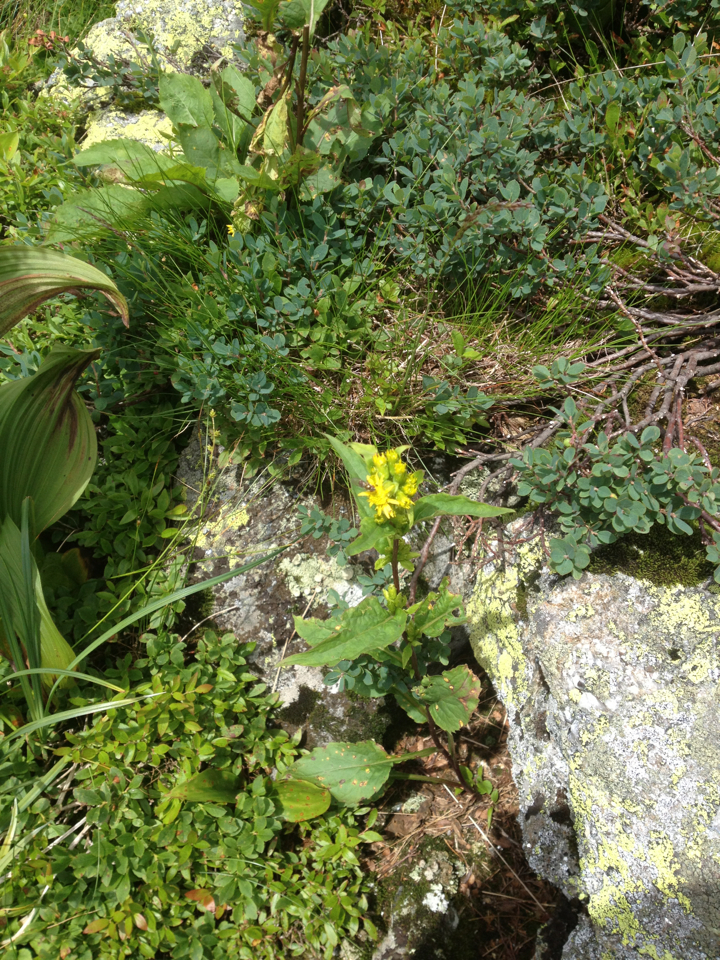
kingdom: Plantae
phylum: Tracheophyta
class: Magnoliopsida
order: Asterales
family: Asteraceae
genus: Solidago
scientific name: Solidago macrophylla
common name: Large-leaved goldenrod
